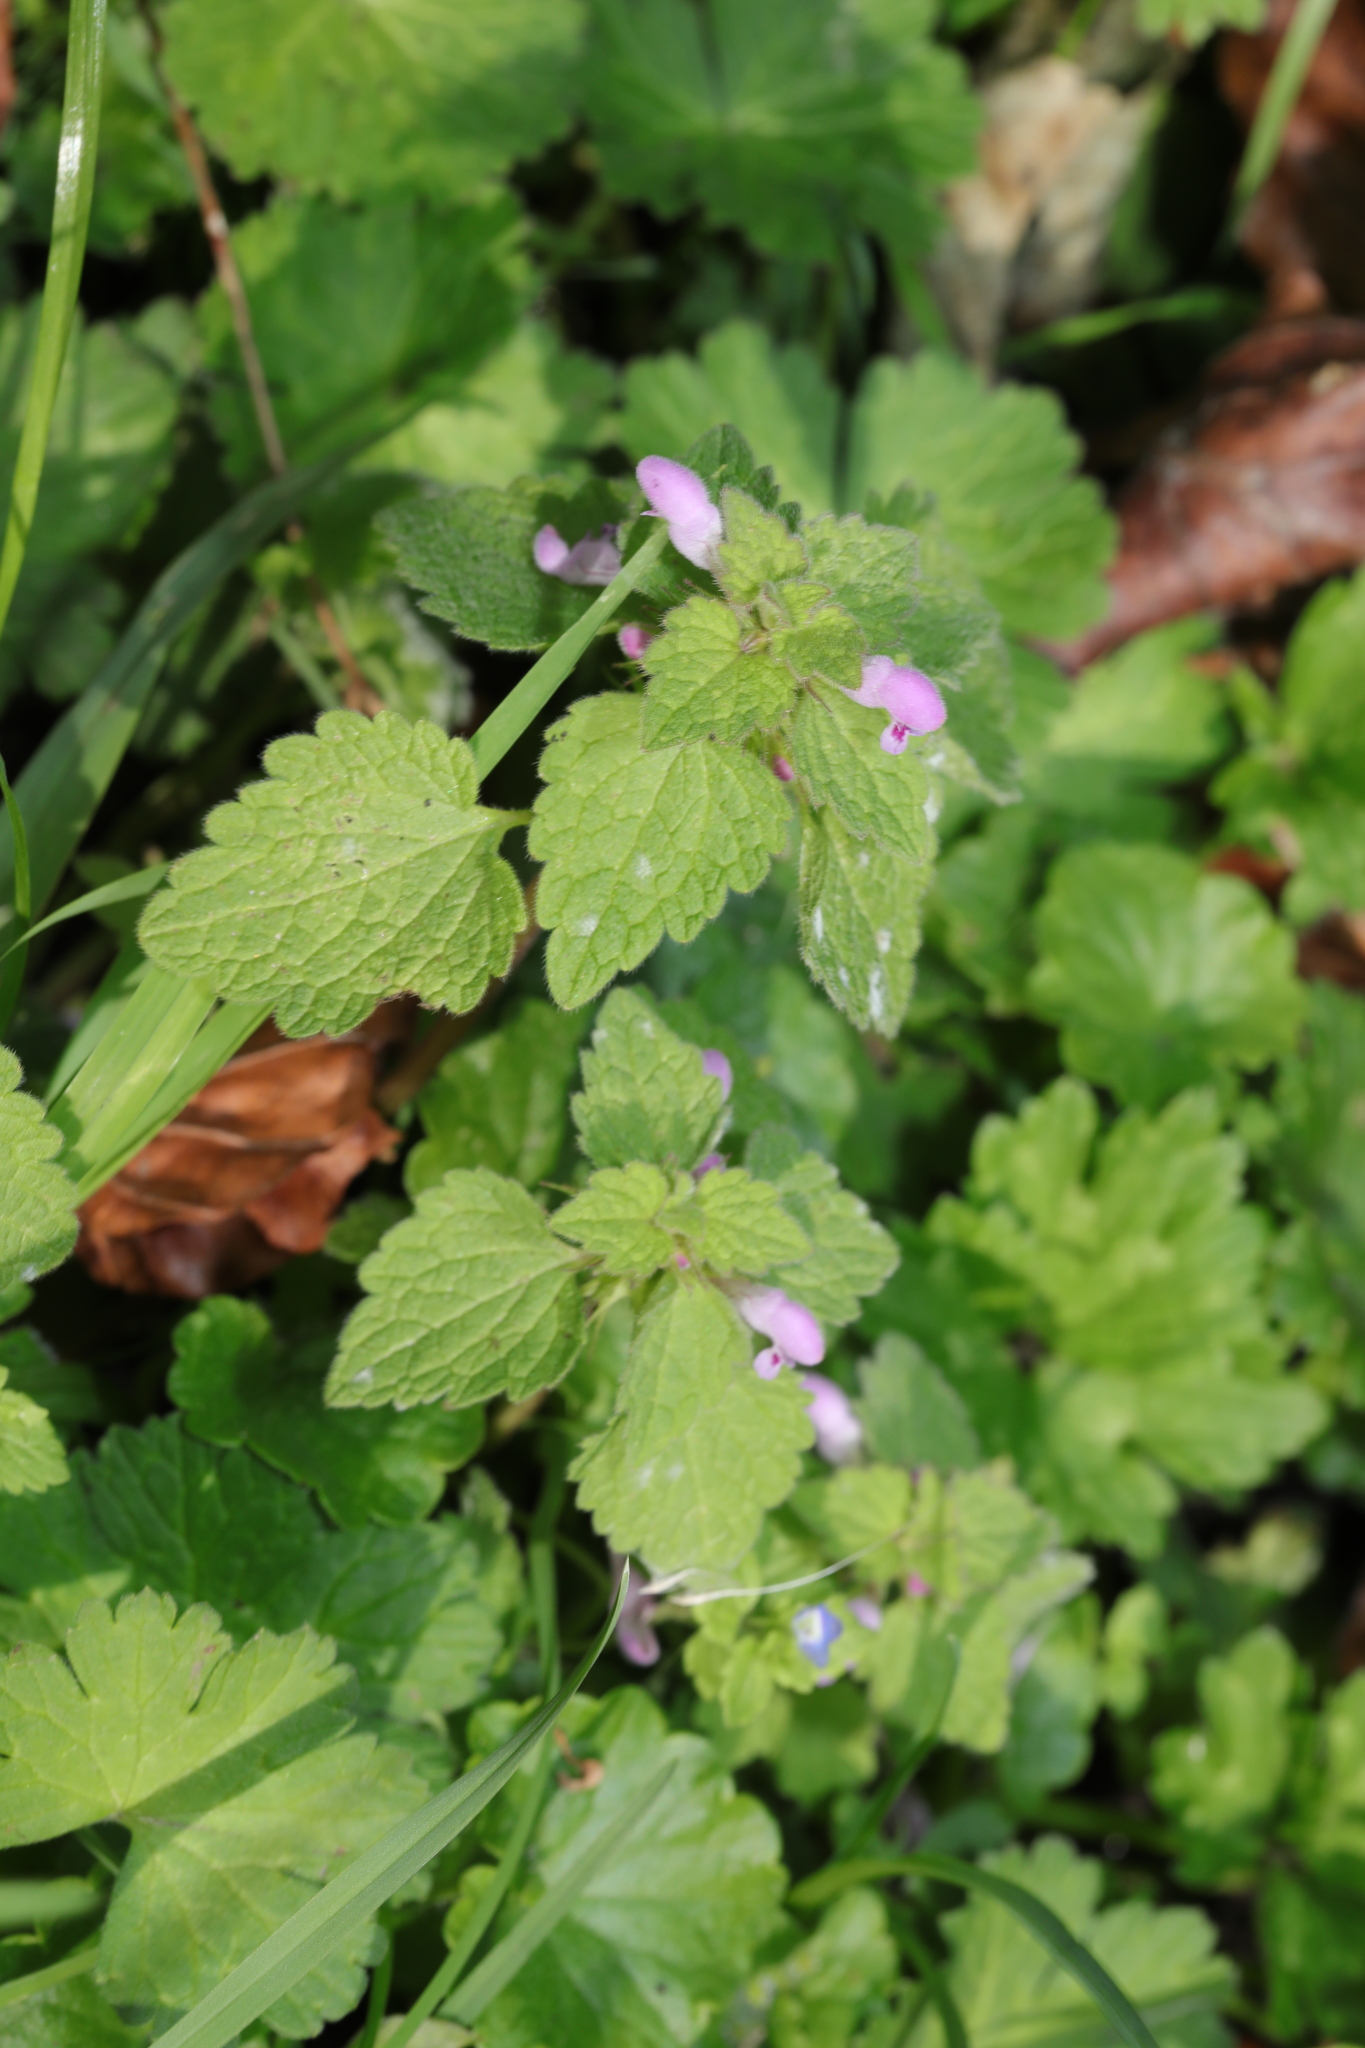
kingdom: Plantae
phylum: Tracheophyta
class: Magnoliopsida
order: Lamiales
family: Lamiaceae
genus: Lamium
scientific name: Lamium purpureum
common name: Red dead-nettle
